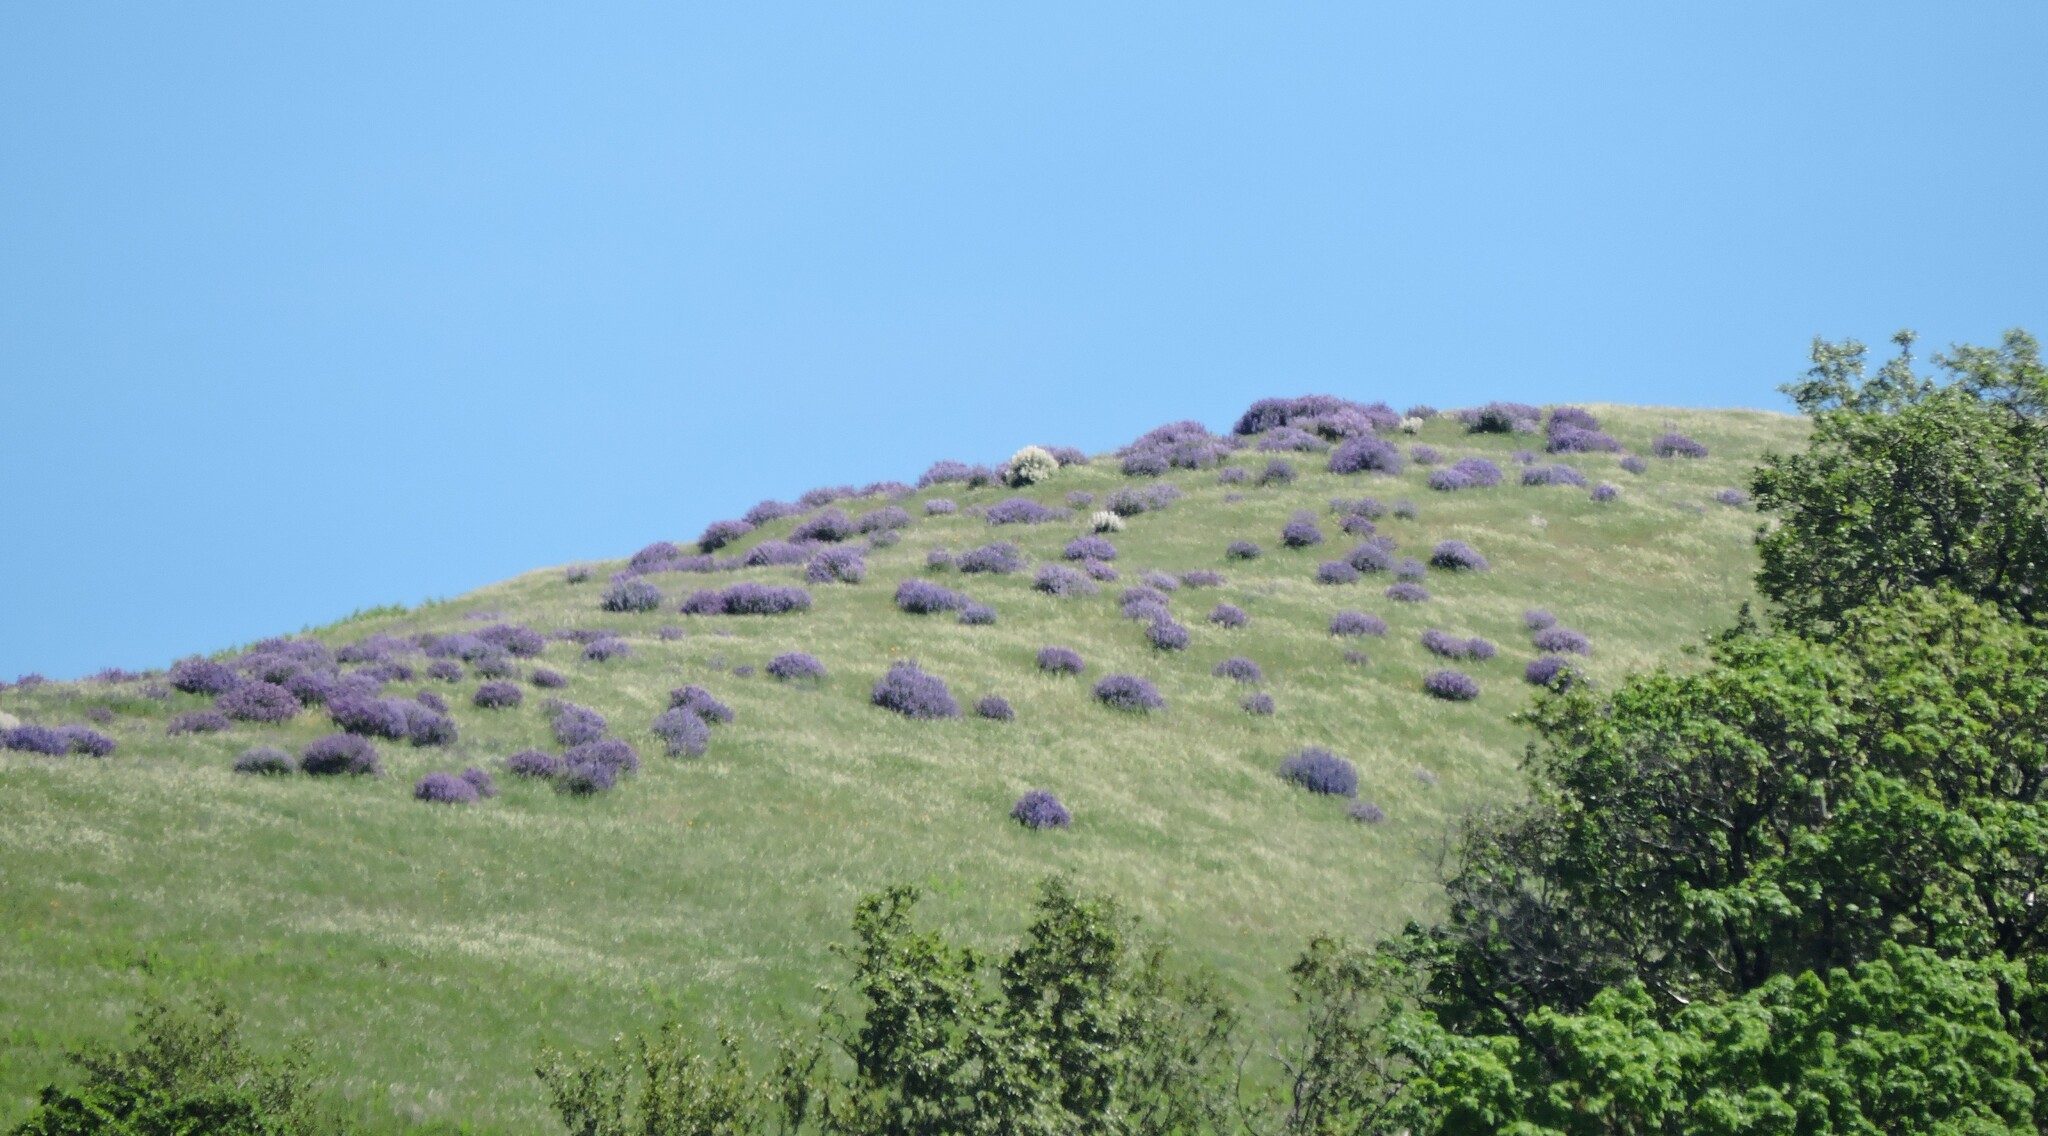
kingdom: Plantae
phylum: Tracheophyta
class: Magnoliopsida
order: Fabales
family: Fabaceae
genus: Lupinus
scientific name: Lupinus albifrons
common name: Foothill lupine
